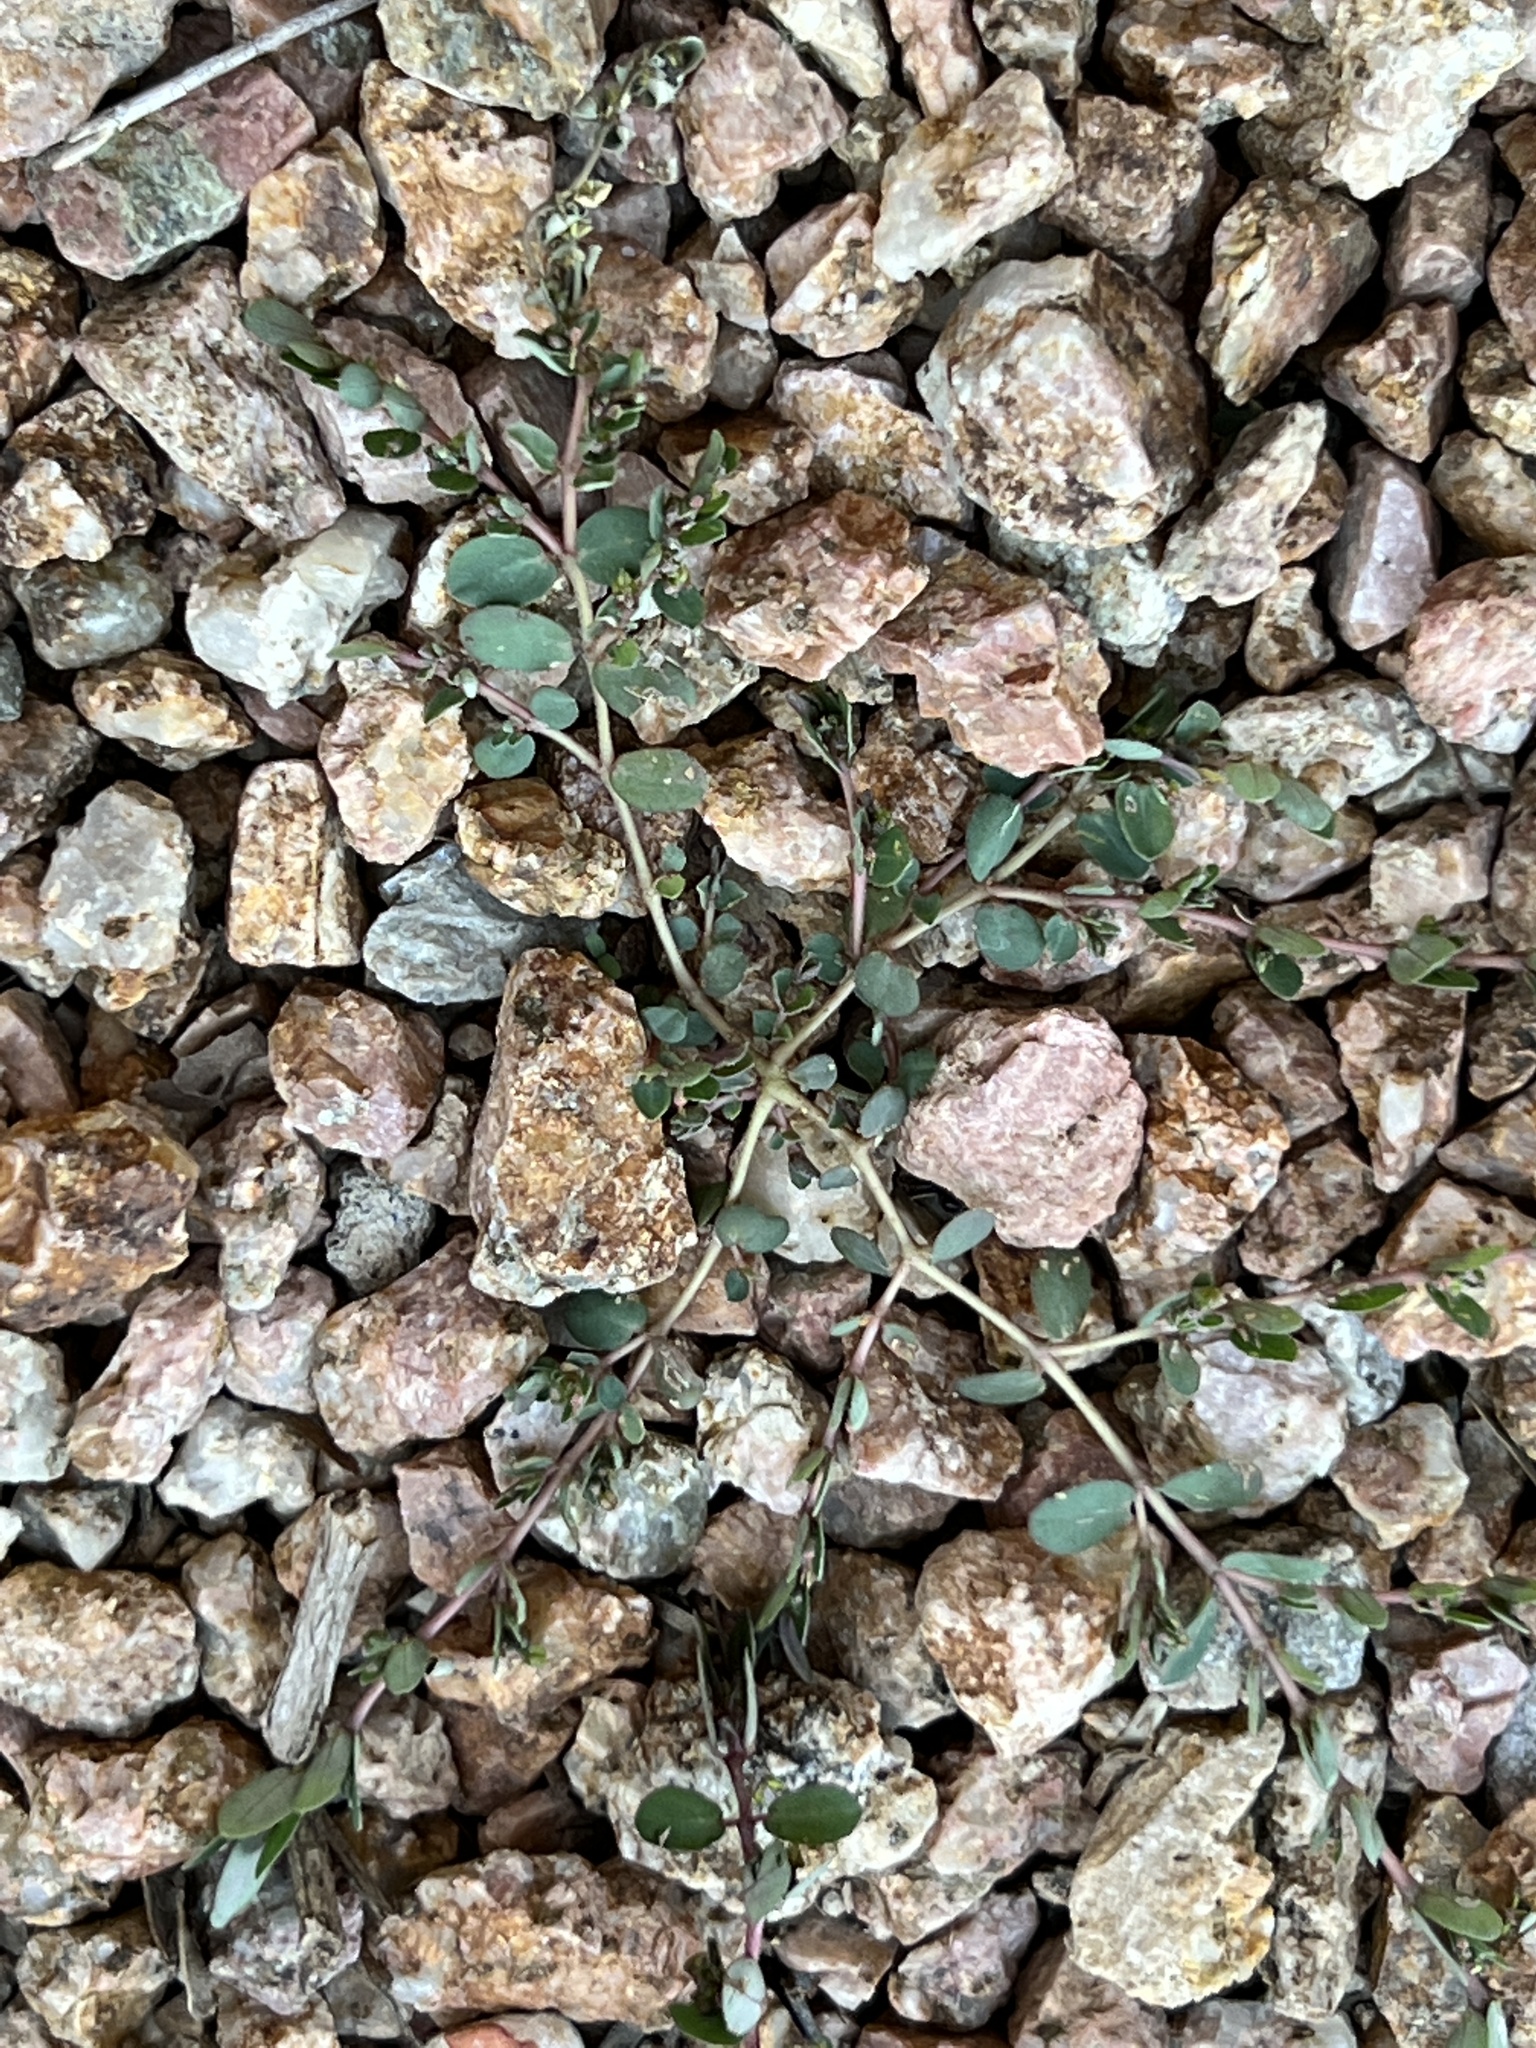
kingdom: Plantae
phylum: Tracheophyta
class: Magnoliopsida
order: Malpighiales
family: Euphorbiaceae
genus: Euphorbia
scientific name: Euphorbia prostrata
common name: Prostrate sandmat
